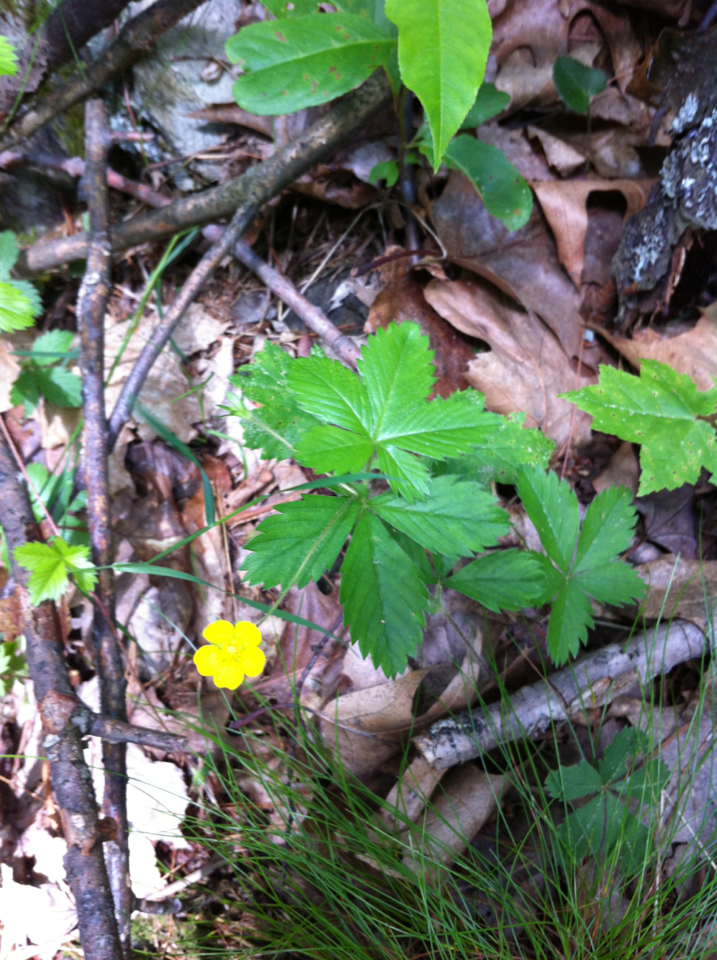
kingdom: Plantae
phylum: Tracheophyta
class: Magnoliopsida
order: Rosales
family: Rosaceae
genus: Potentilla
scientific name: Potentilla simplex
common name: Old field cinquefoil
